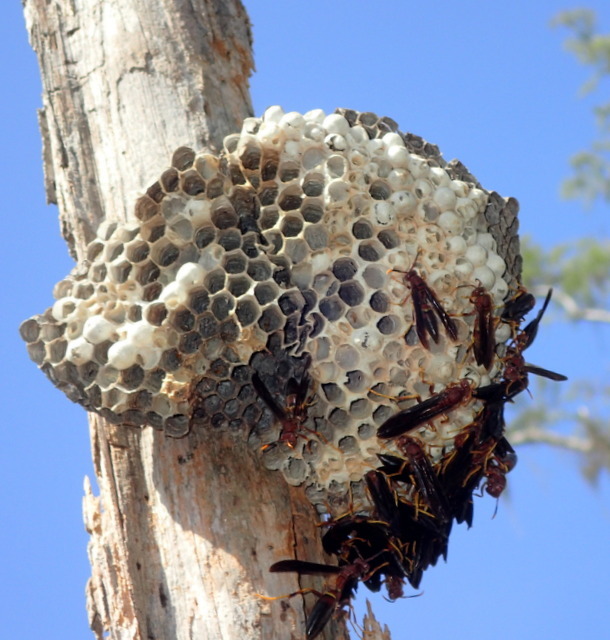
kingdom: Animalia
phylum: Arthropoda
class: Insecta
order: Hymenoptera
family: Eumenidae
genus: Polistes
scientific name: Polistes annularis
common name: Ringed paper wasp
